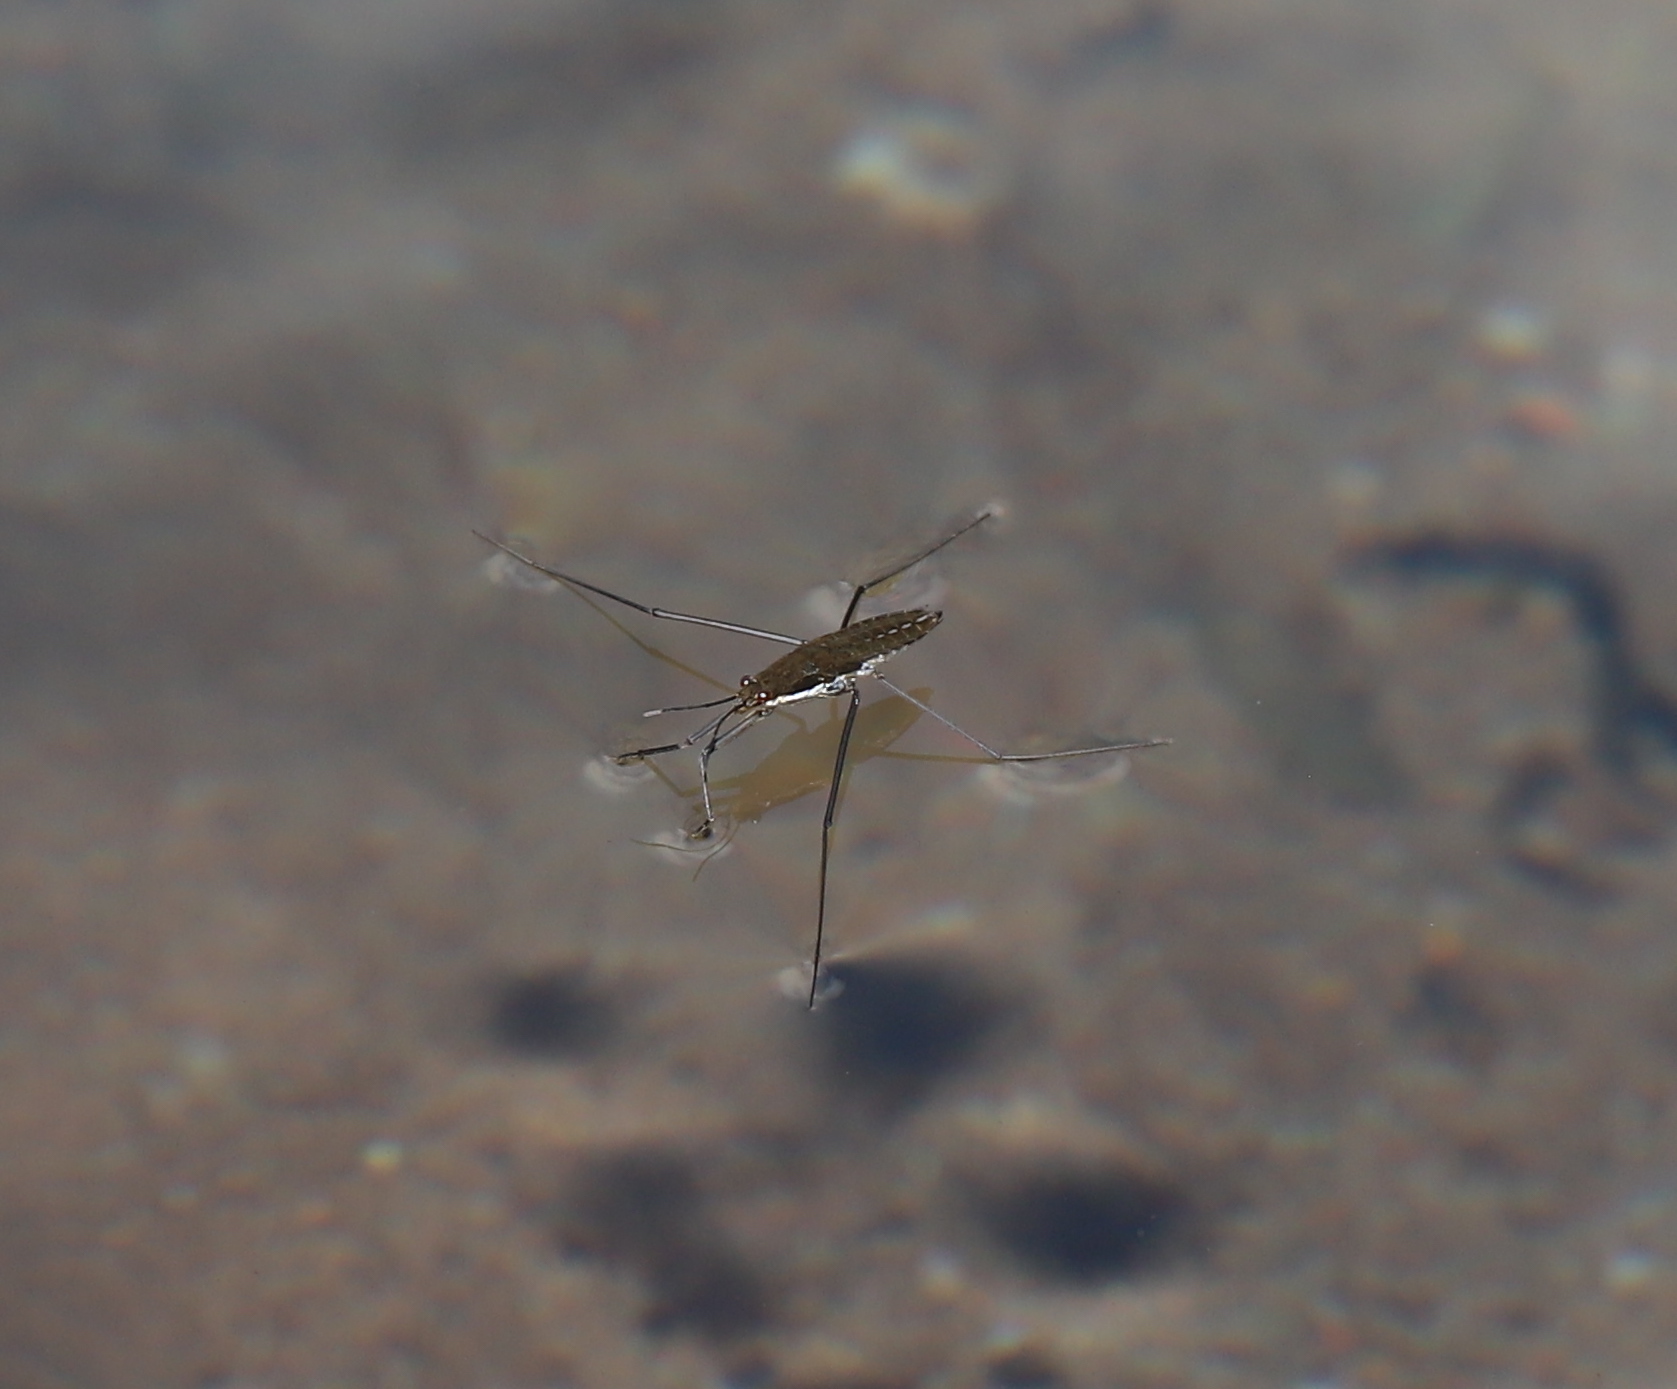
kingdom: Animalia
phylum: Arthropoda
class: Insecta
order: Hemiptera
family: Gerridae
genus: Aquarius
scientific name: Aquarius remigis
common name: Common water strider
